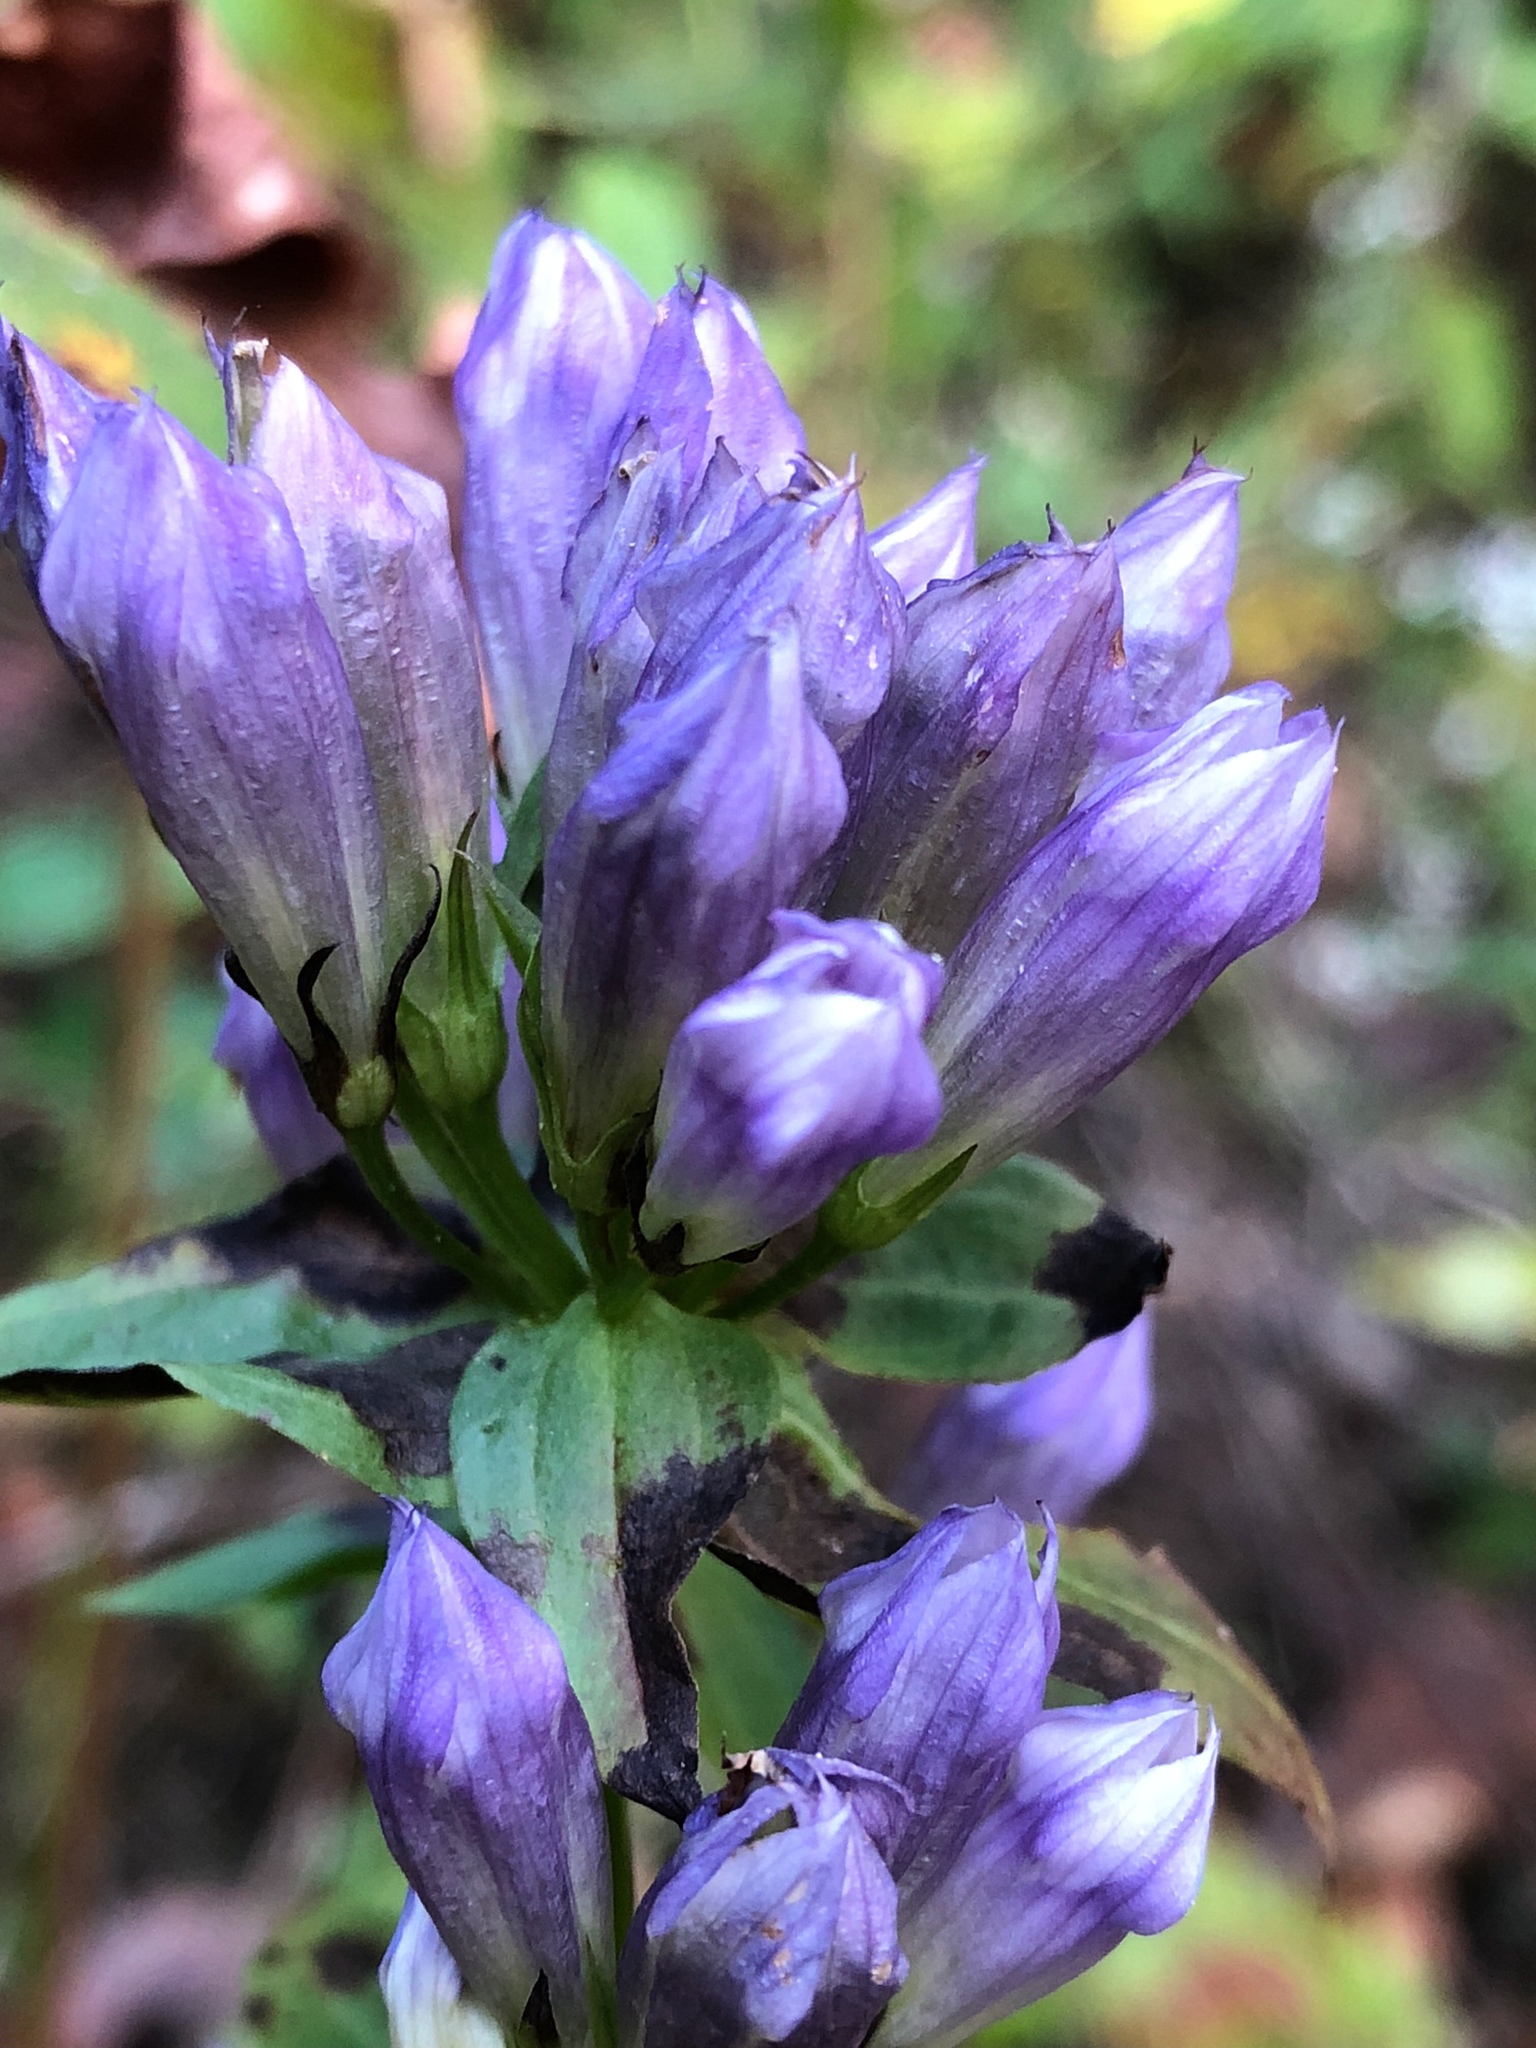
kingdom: Plantae
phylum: Tracheophyta
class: Magnoliopsida
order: Gentianales
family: Gentianaceae
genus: Gentianella
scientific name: Gentianella quinquefolia
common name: Agueweed
